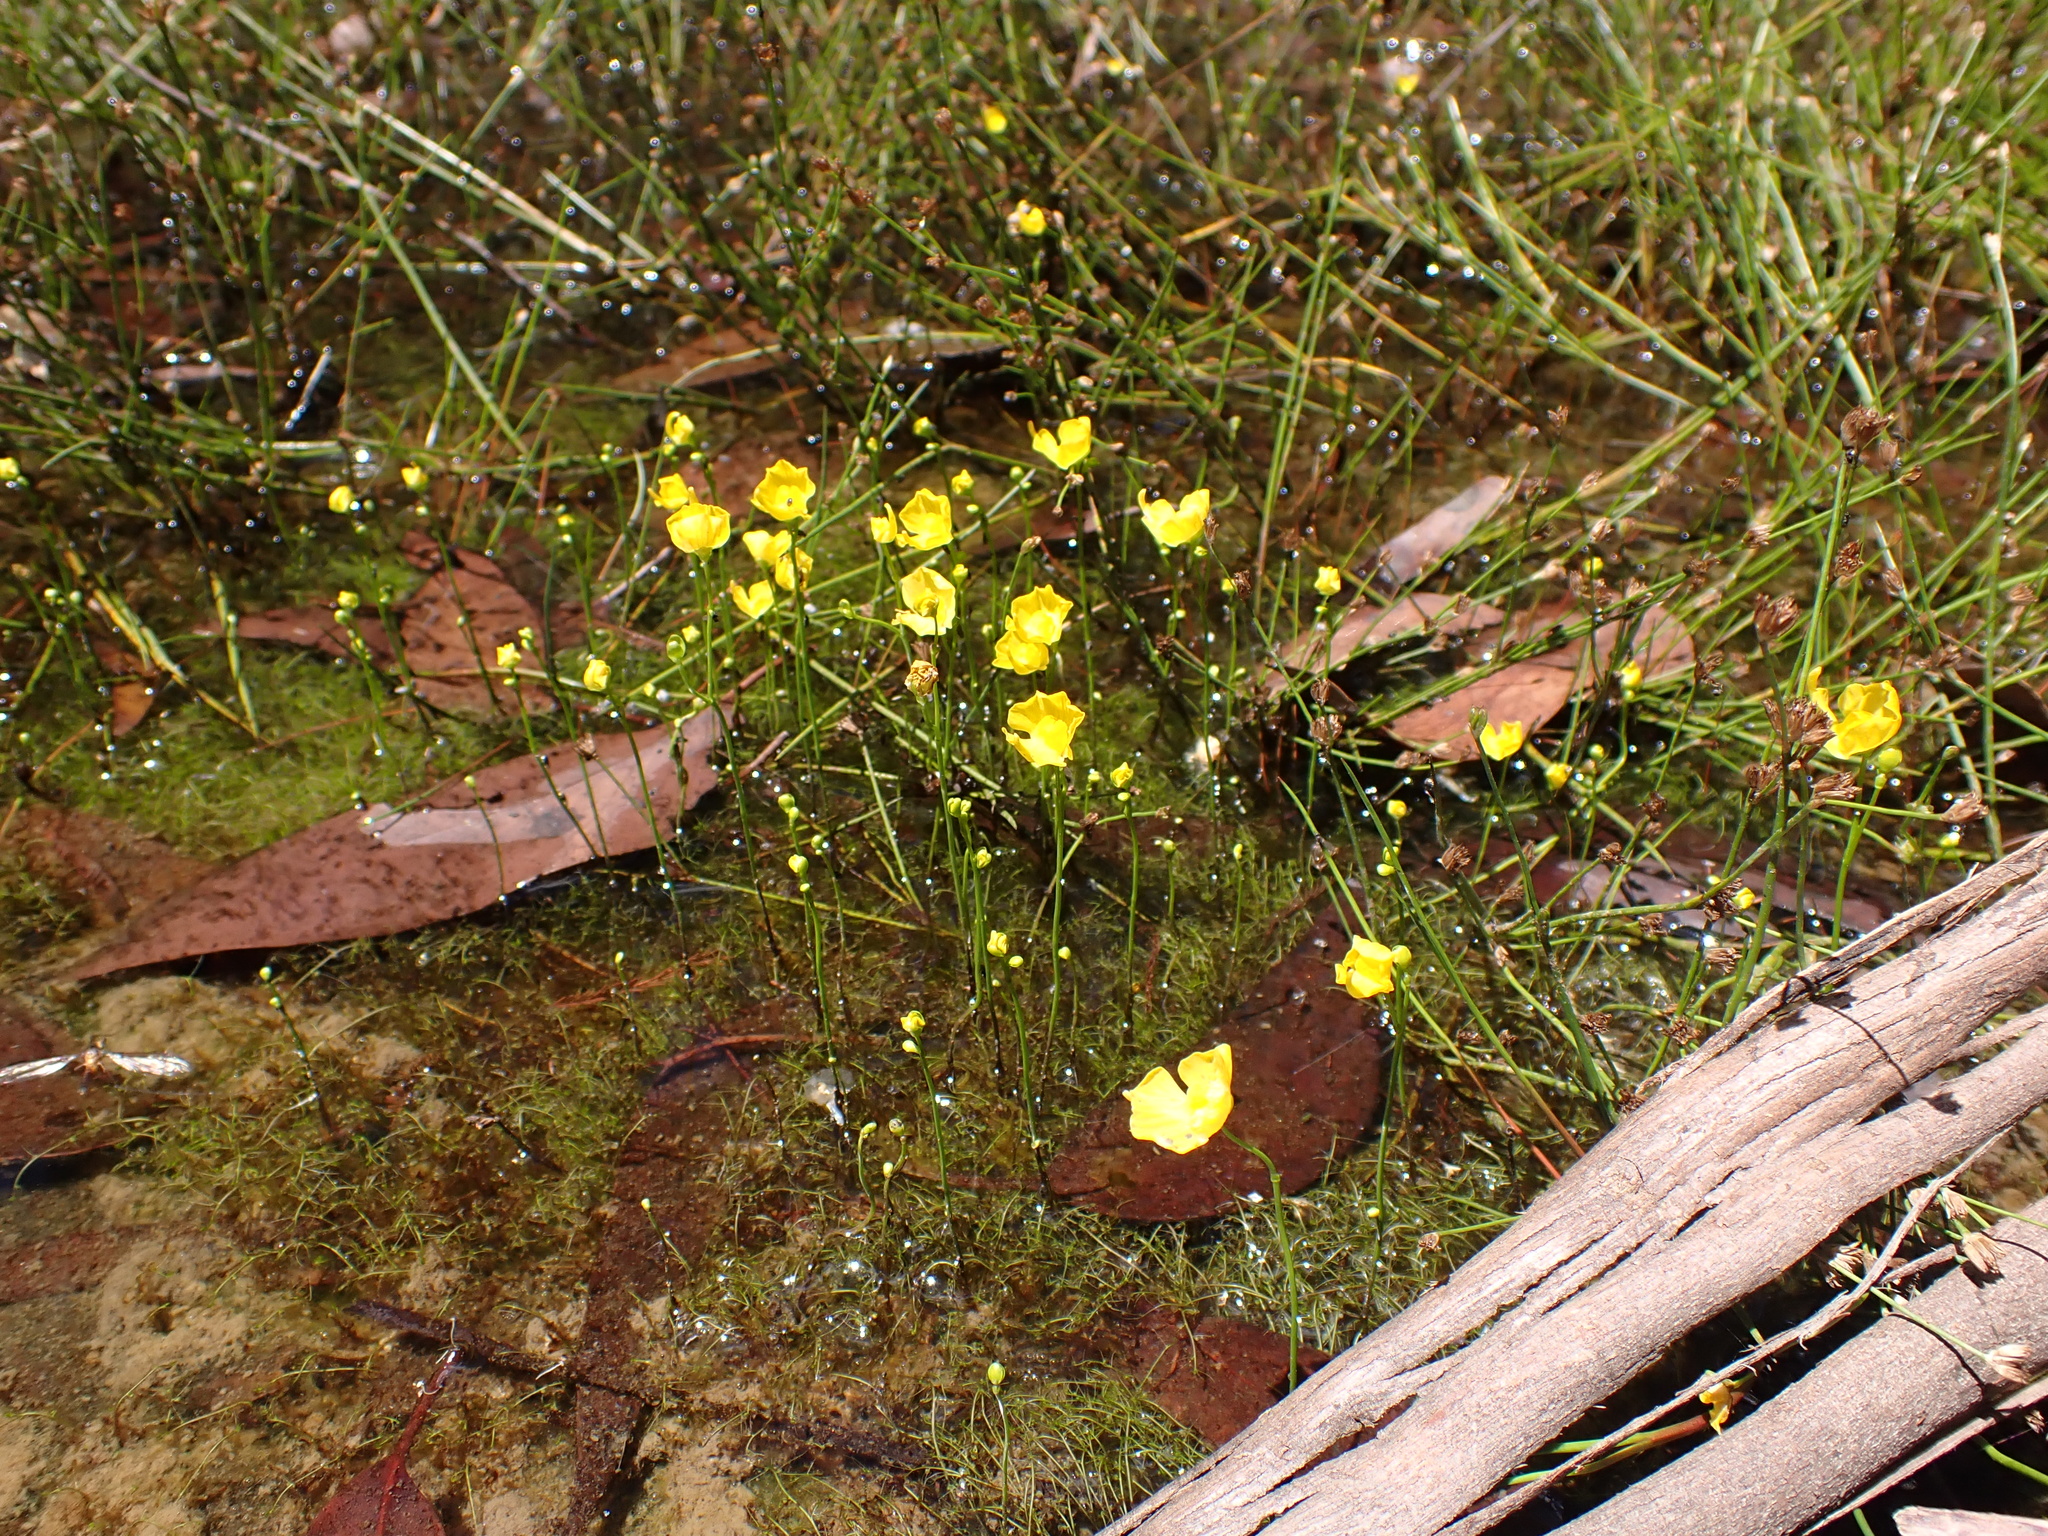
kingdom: Plantae
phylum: Tracheophyta
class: Magnoliopsida
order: Lamiales
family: Lentibulariaceae
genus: Utricularia
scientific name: Utricularia gibba
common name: Humped bladderwort
